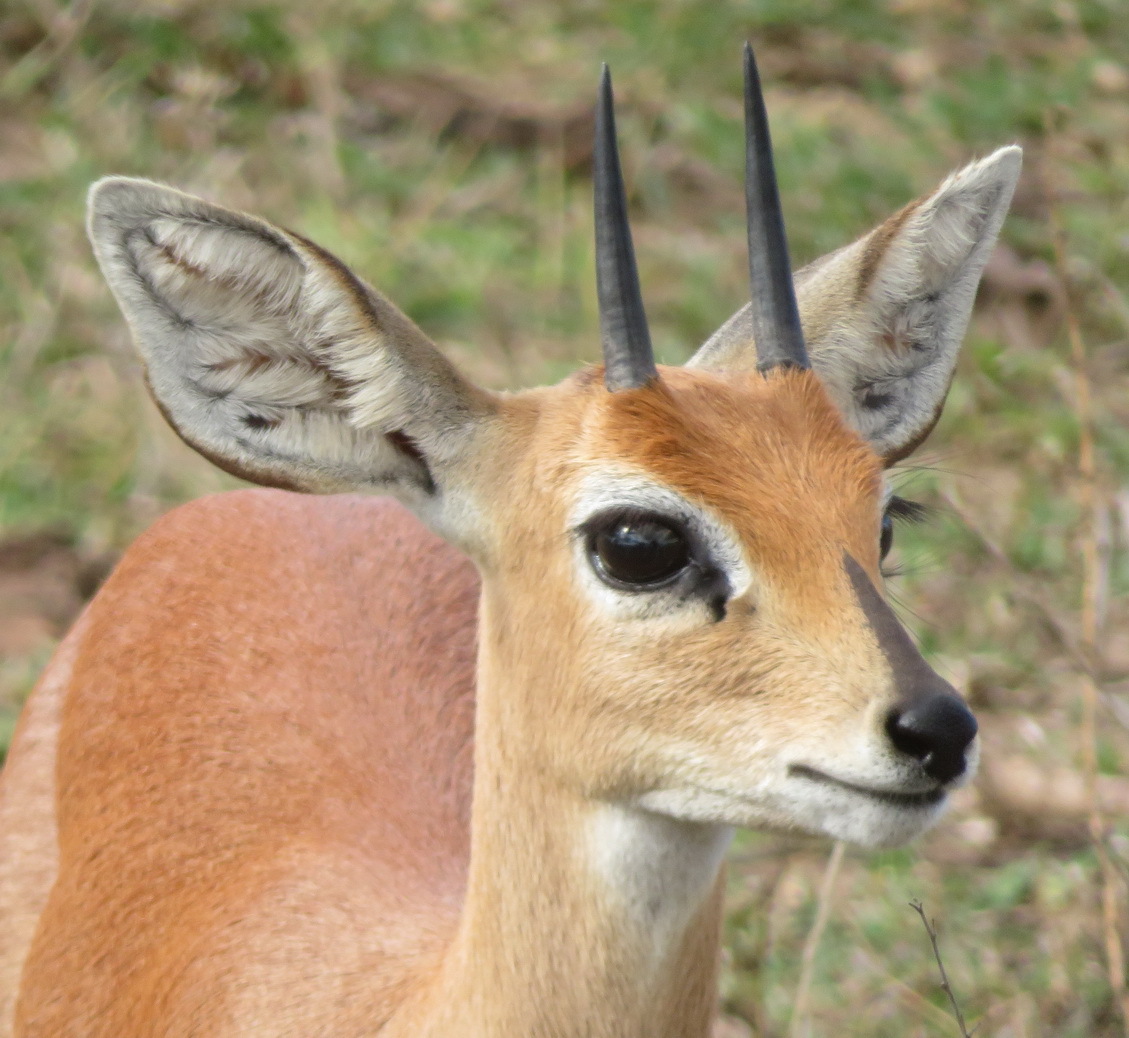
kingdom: Animalia
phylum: Chordata
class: Mammalia
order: Artiodactyla
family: Bovidae
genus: Raphicerus
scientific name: Raphicerus campestris
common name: Steenbok
